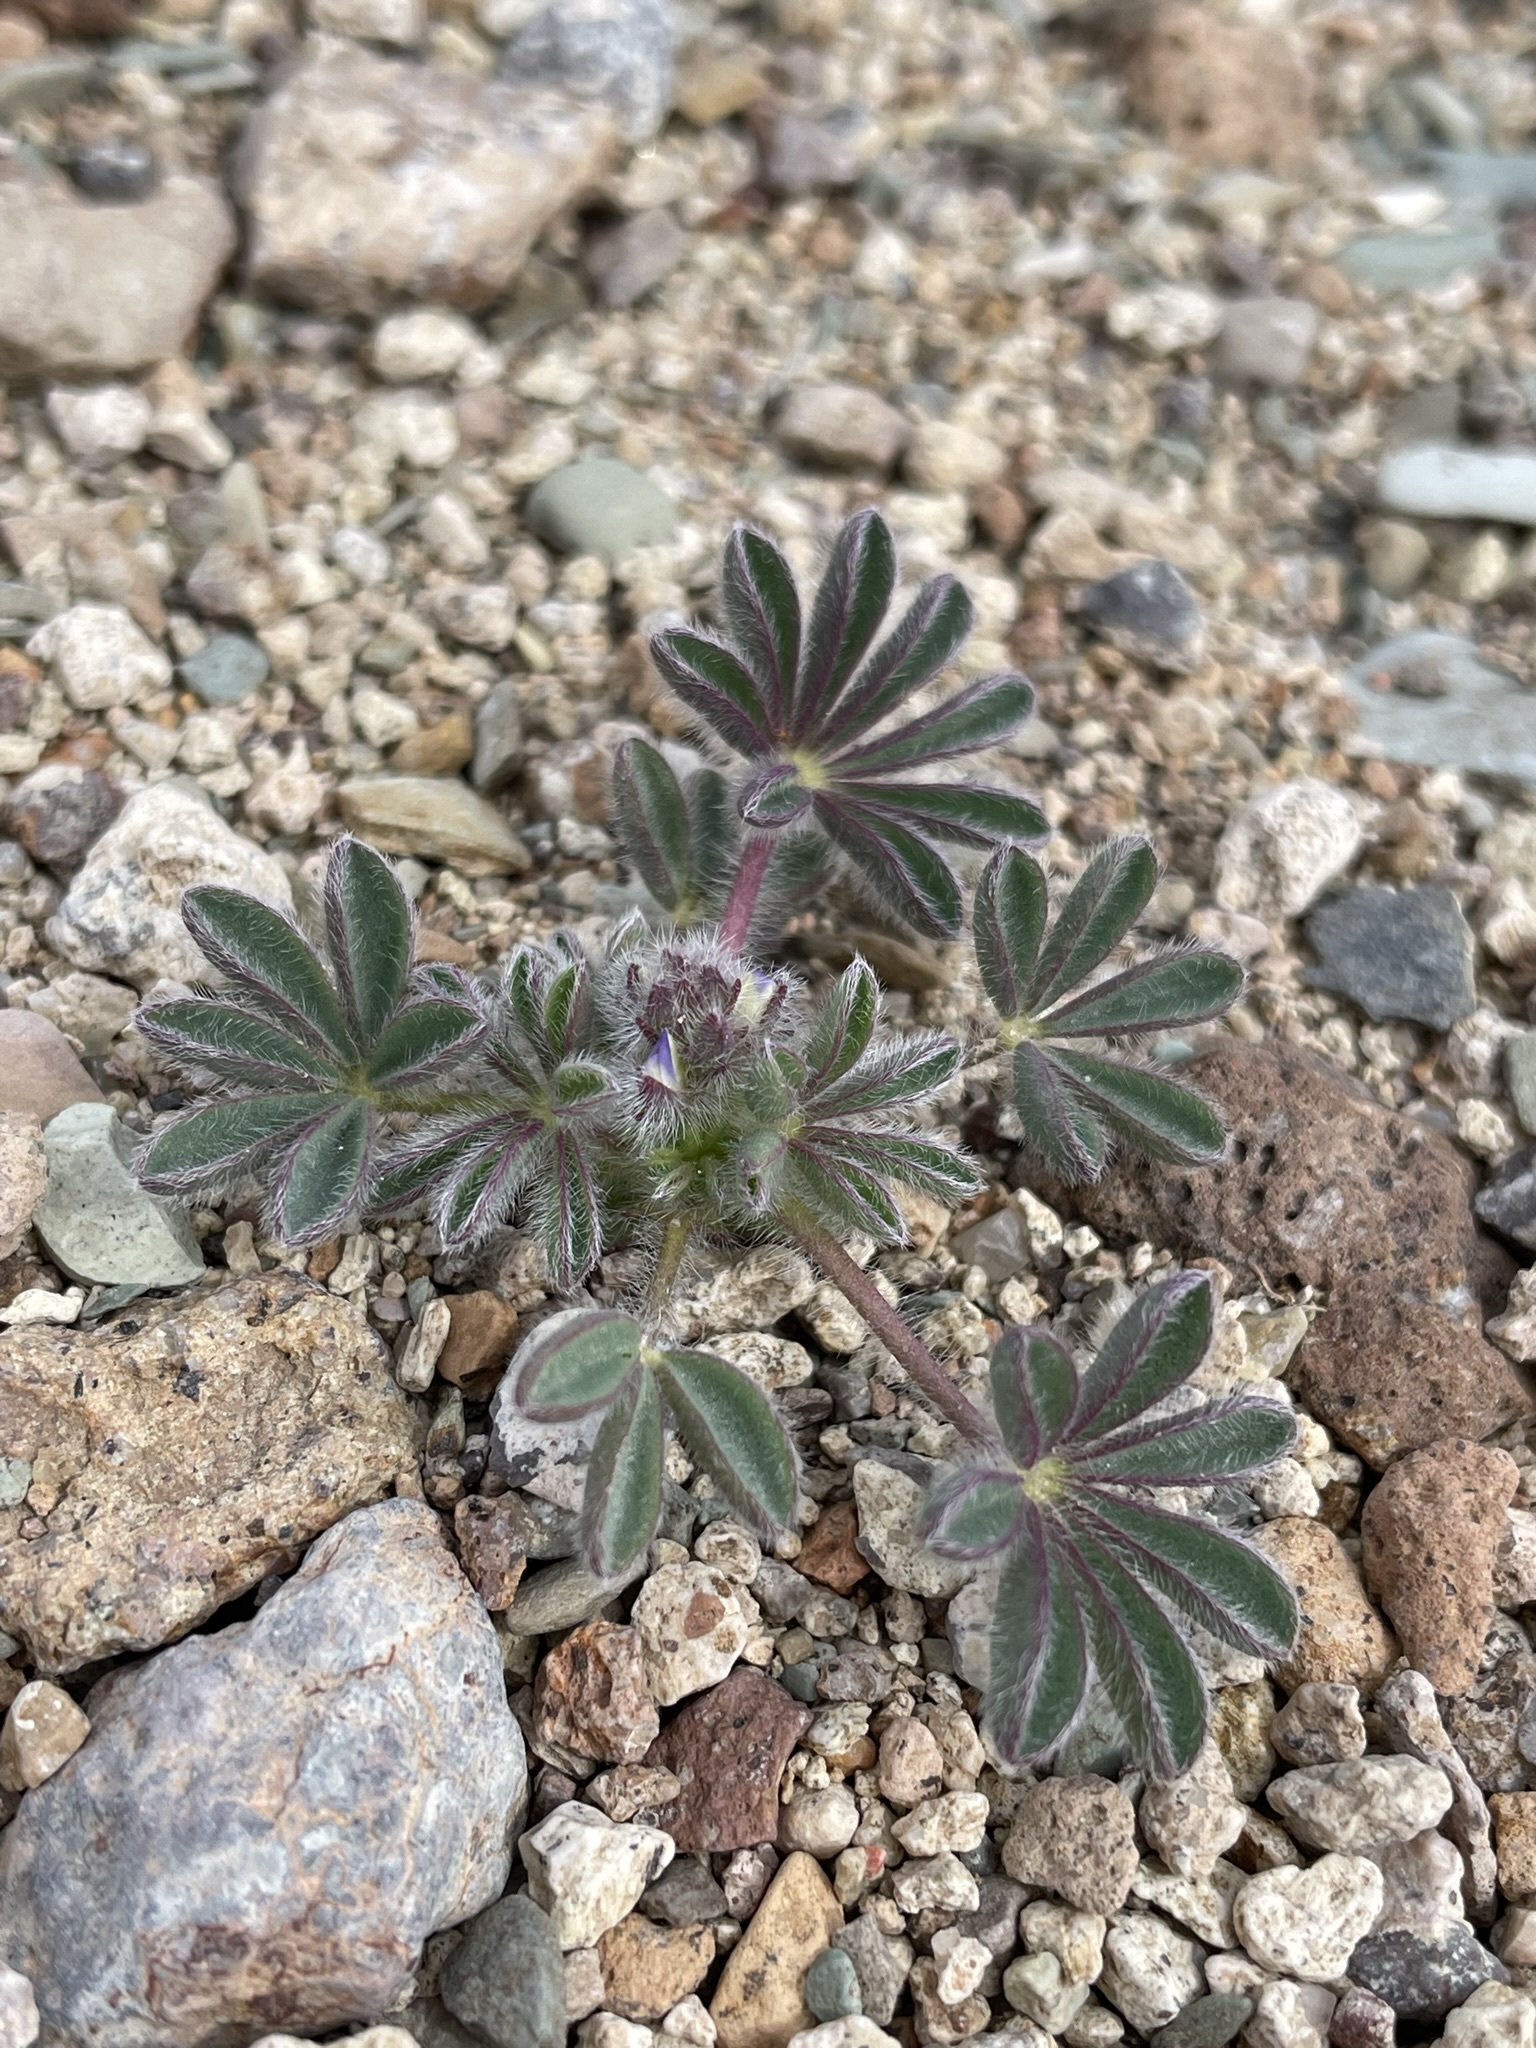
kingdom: Plantae
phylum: Tracheophyta
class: Magnoliopsida
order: Fabales
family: Fabaceae
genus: Lupinus
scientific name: Lupinus brevicaulis
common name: Sand lupine
